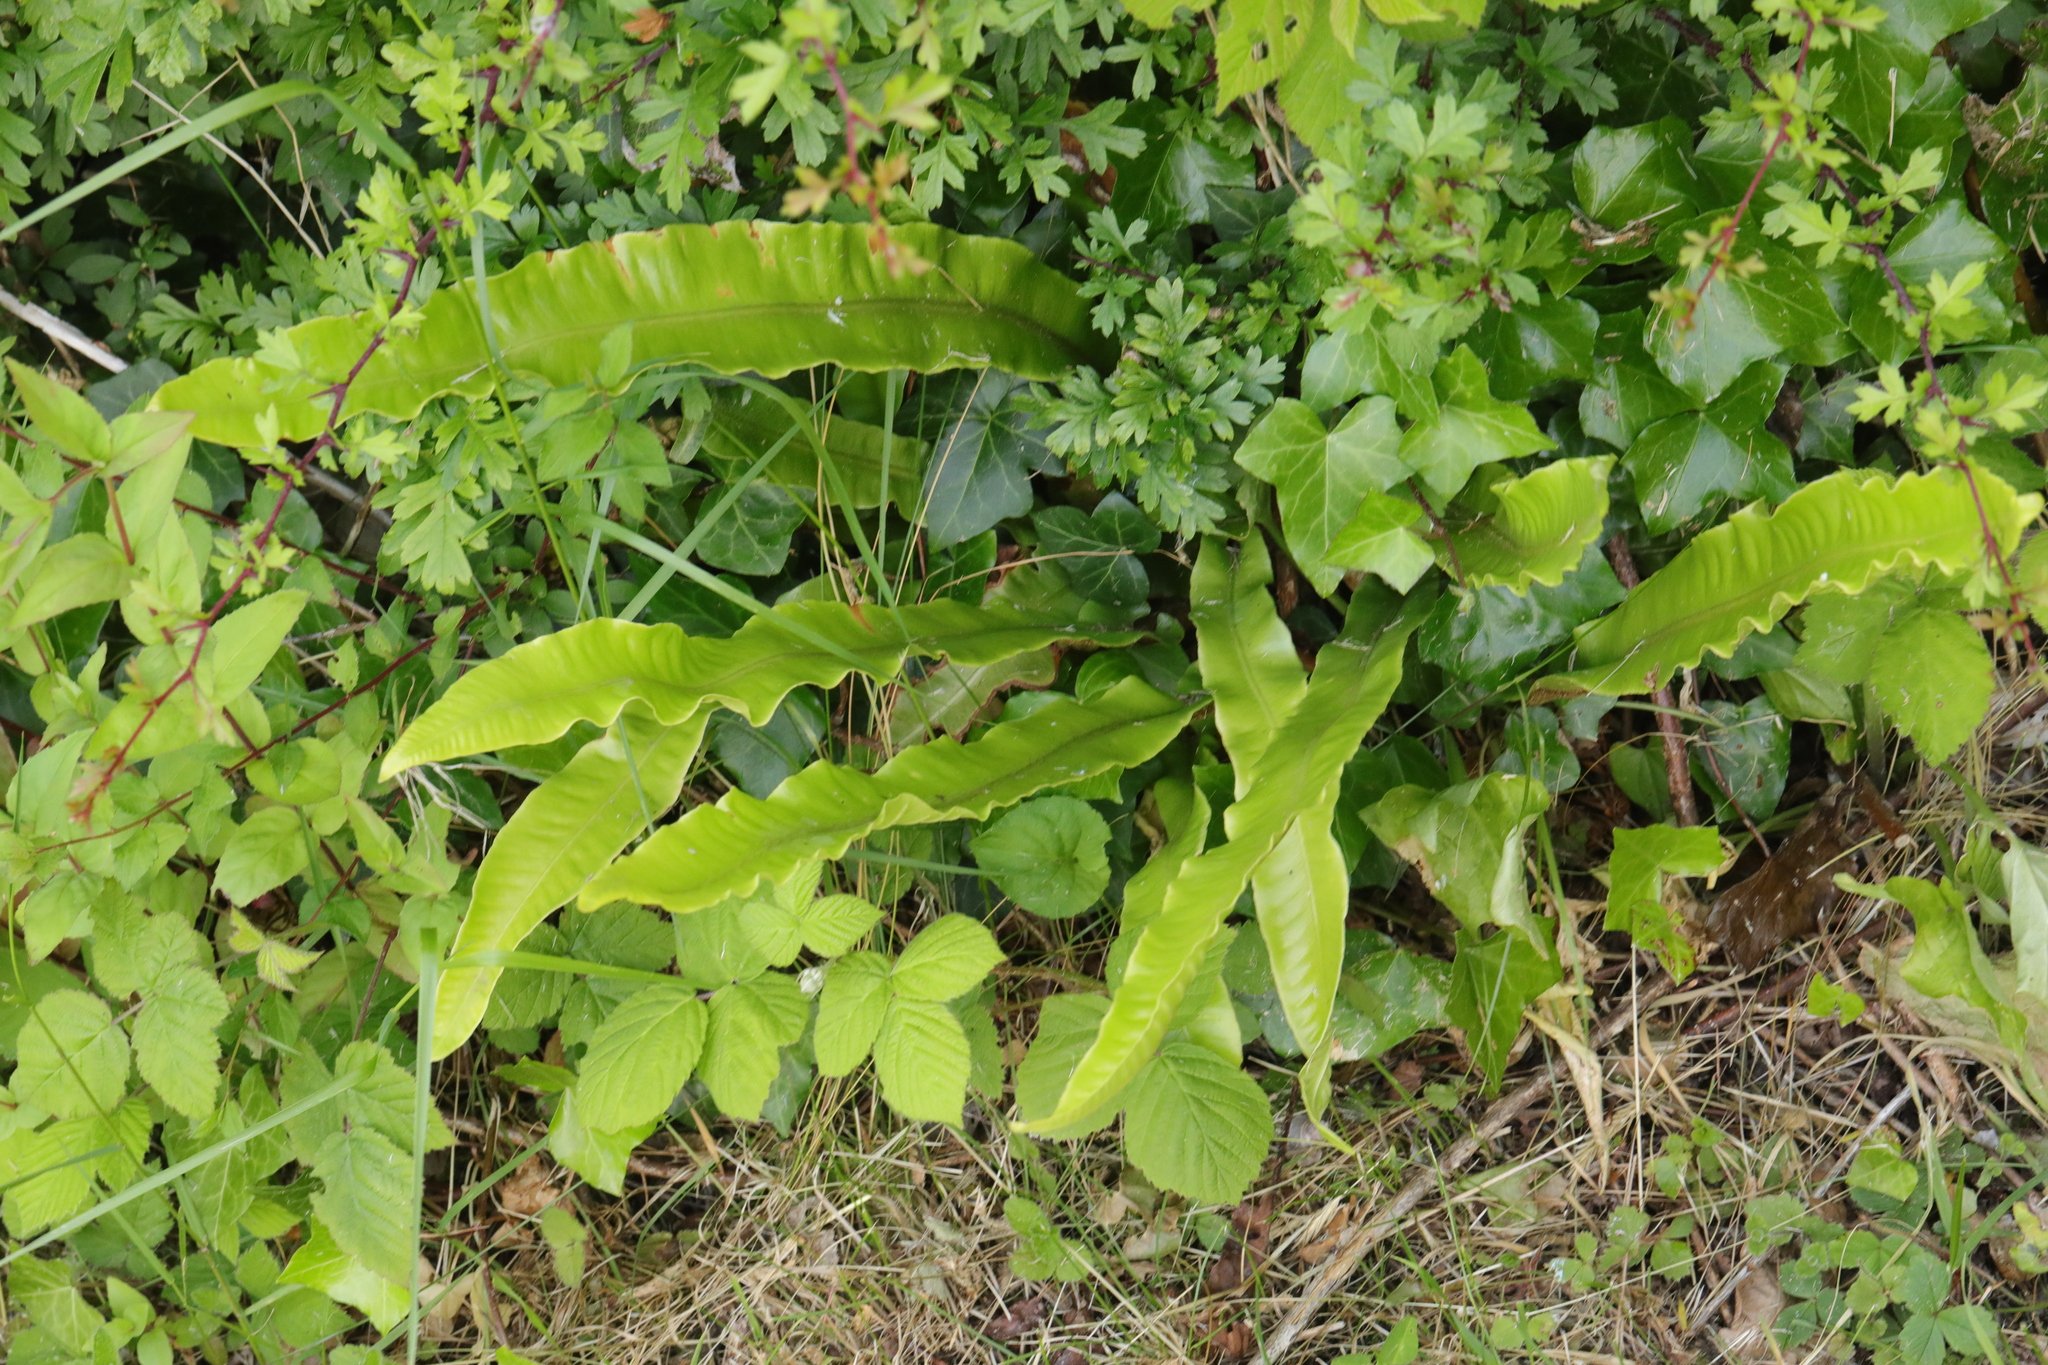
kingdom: Plantae
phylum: Tracheophyta
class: Polypodiopsida
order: Polypodiales
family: Aspleniaceae
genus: Asplenium
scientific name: Asplenium scolopendrium
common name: Hart's-tongue fern
